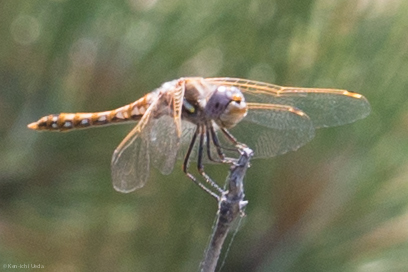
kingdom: Animalia
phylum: Arthropoda
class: Insecta
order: Odonata
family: Libellulidae
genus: Sympetrum
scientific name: Sympetrum corruptum
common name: Variegated meadowhawk
